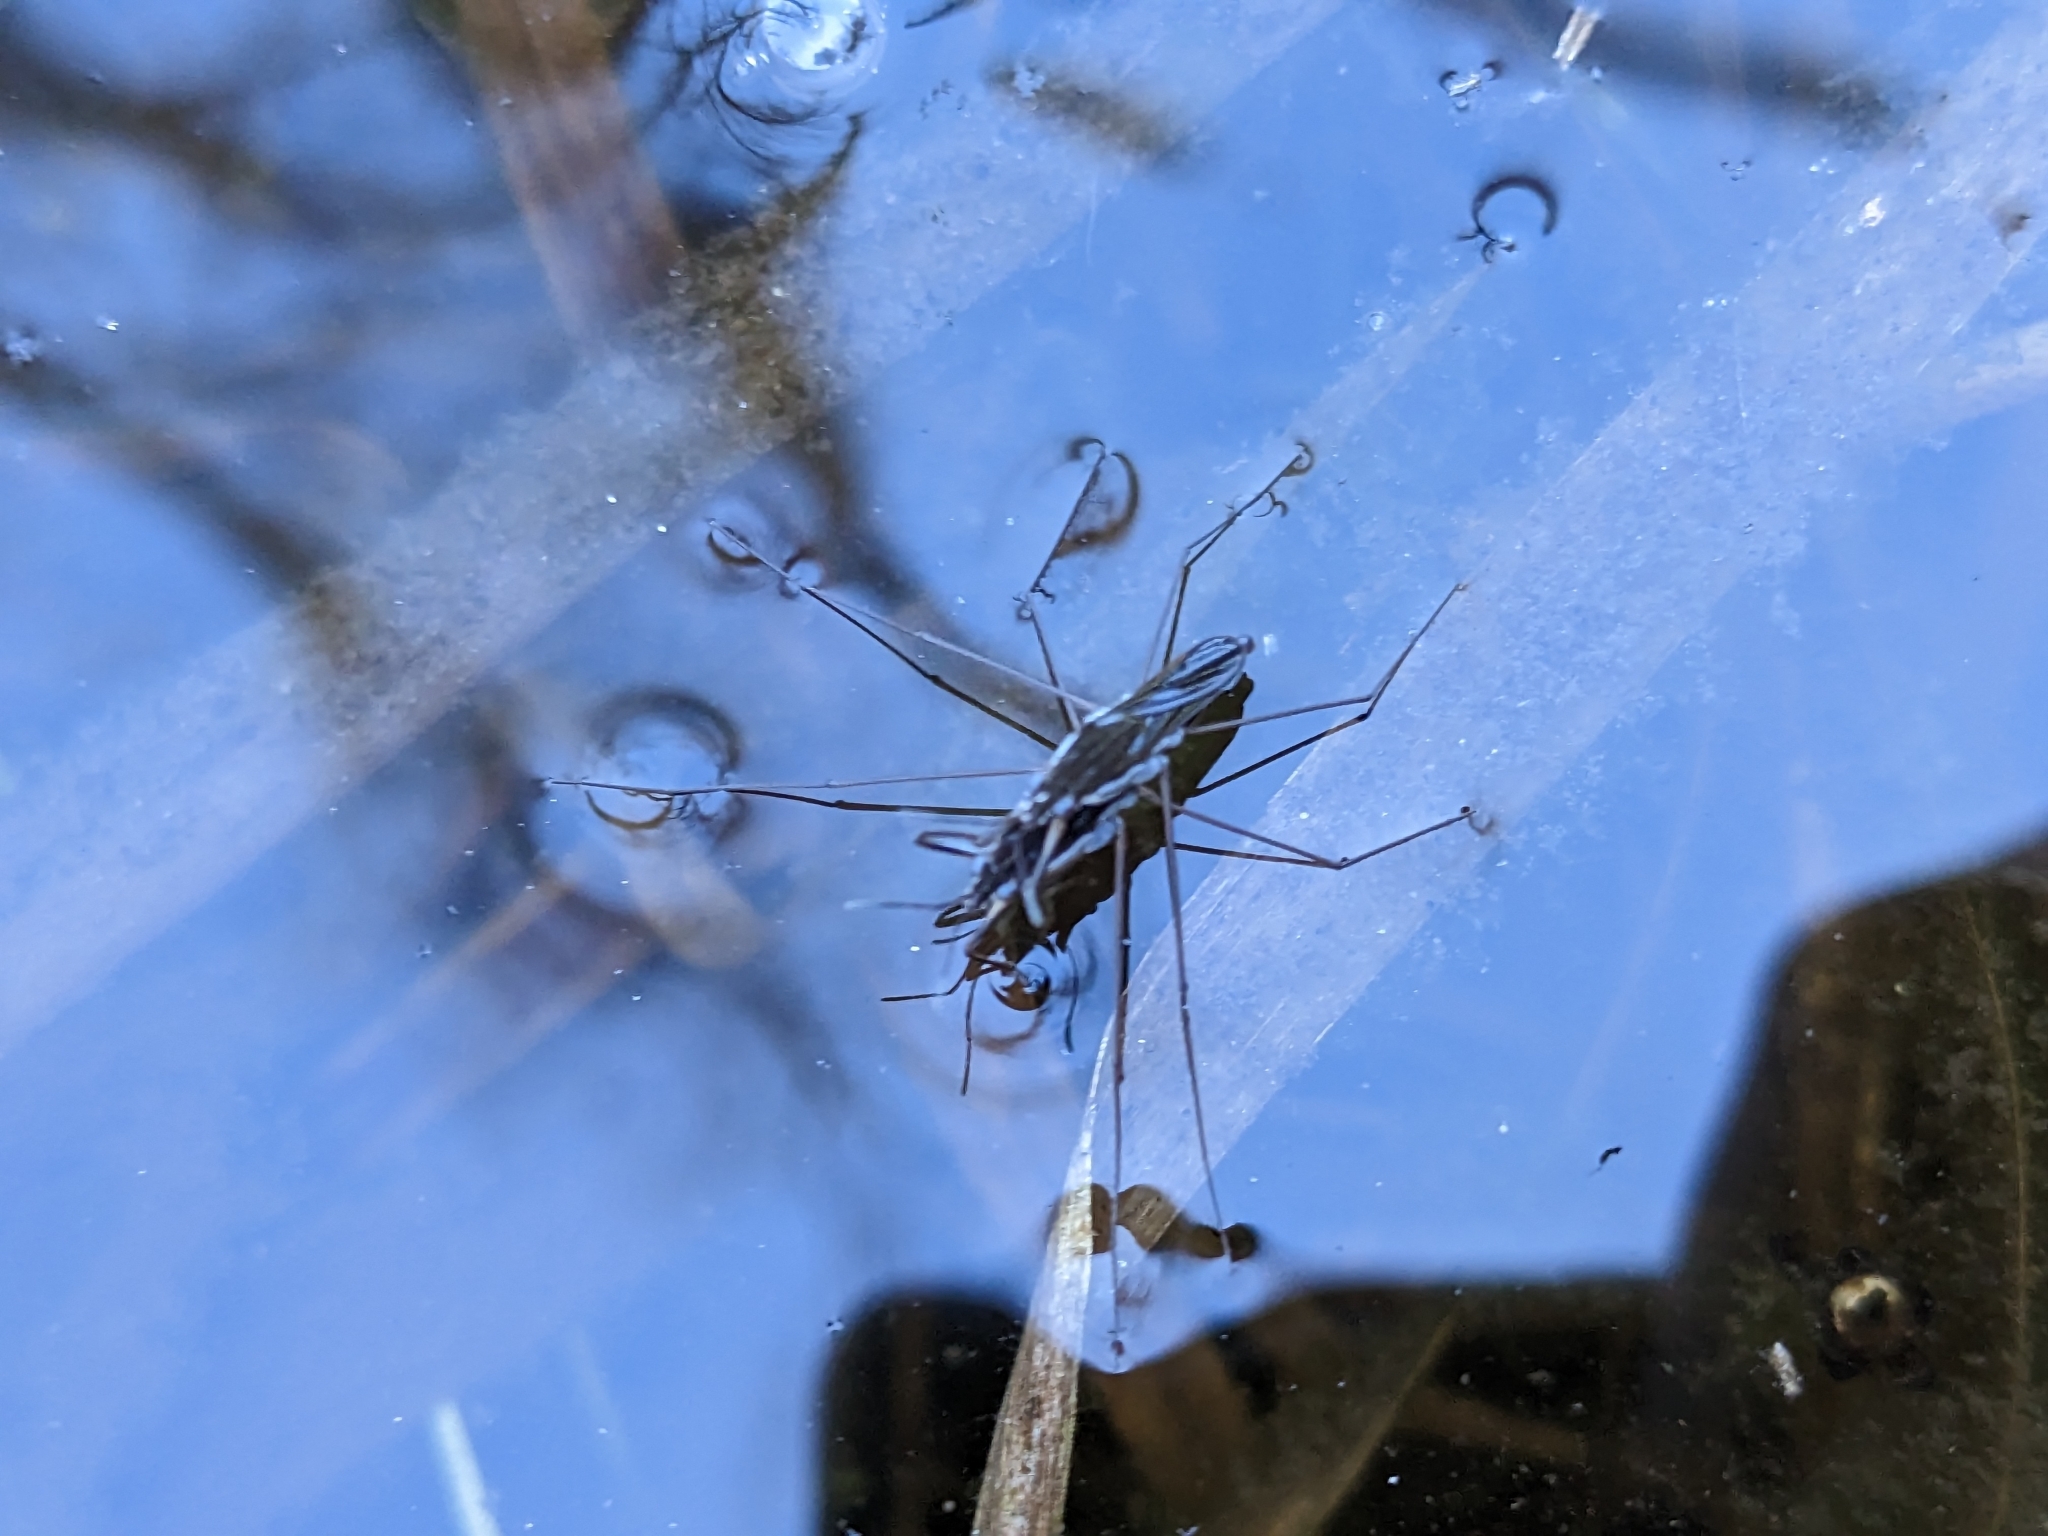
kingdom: Animalia
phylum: Arthropoda
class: Insecta
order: Hemiptera
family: Gerridae
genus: Gerris
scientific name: Gerris
